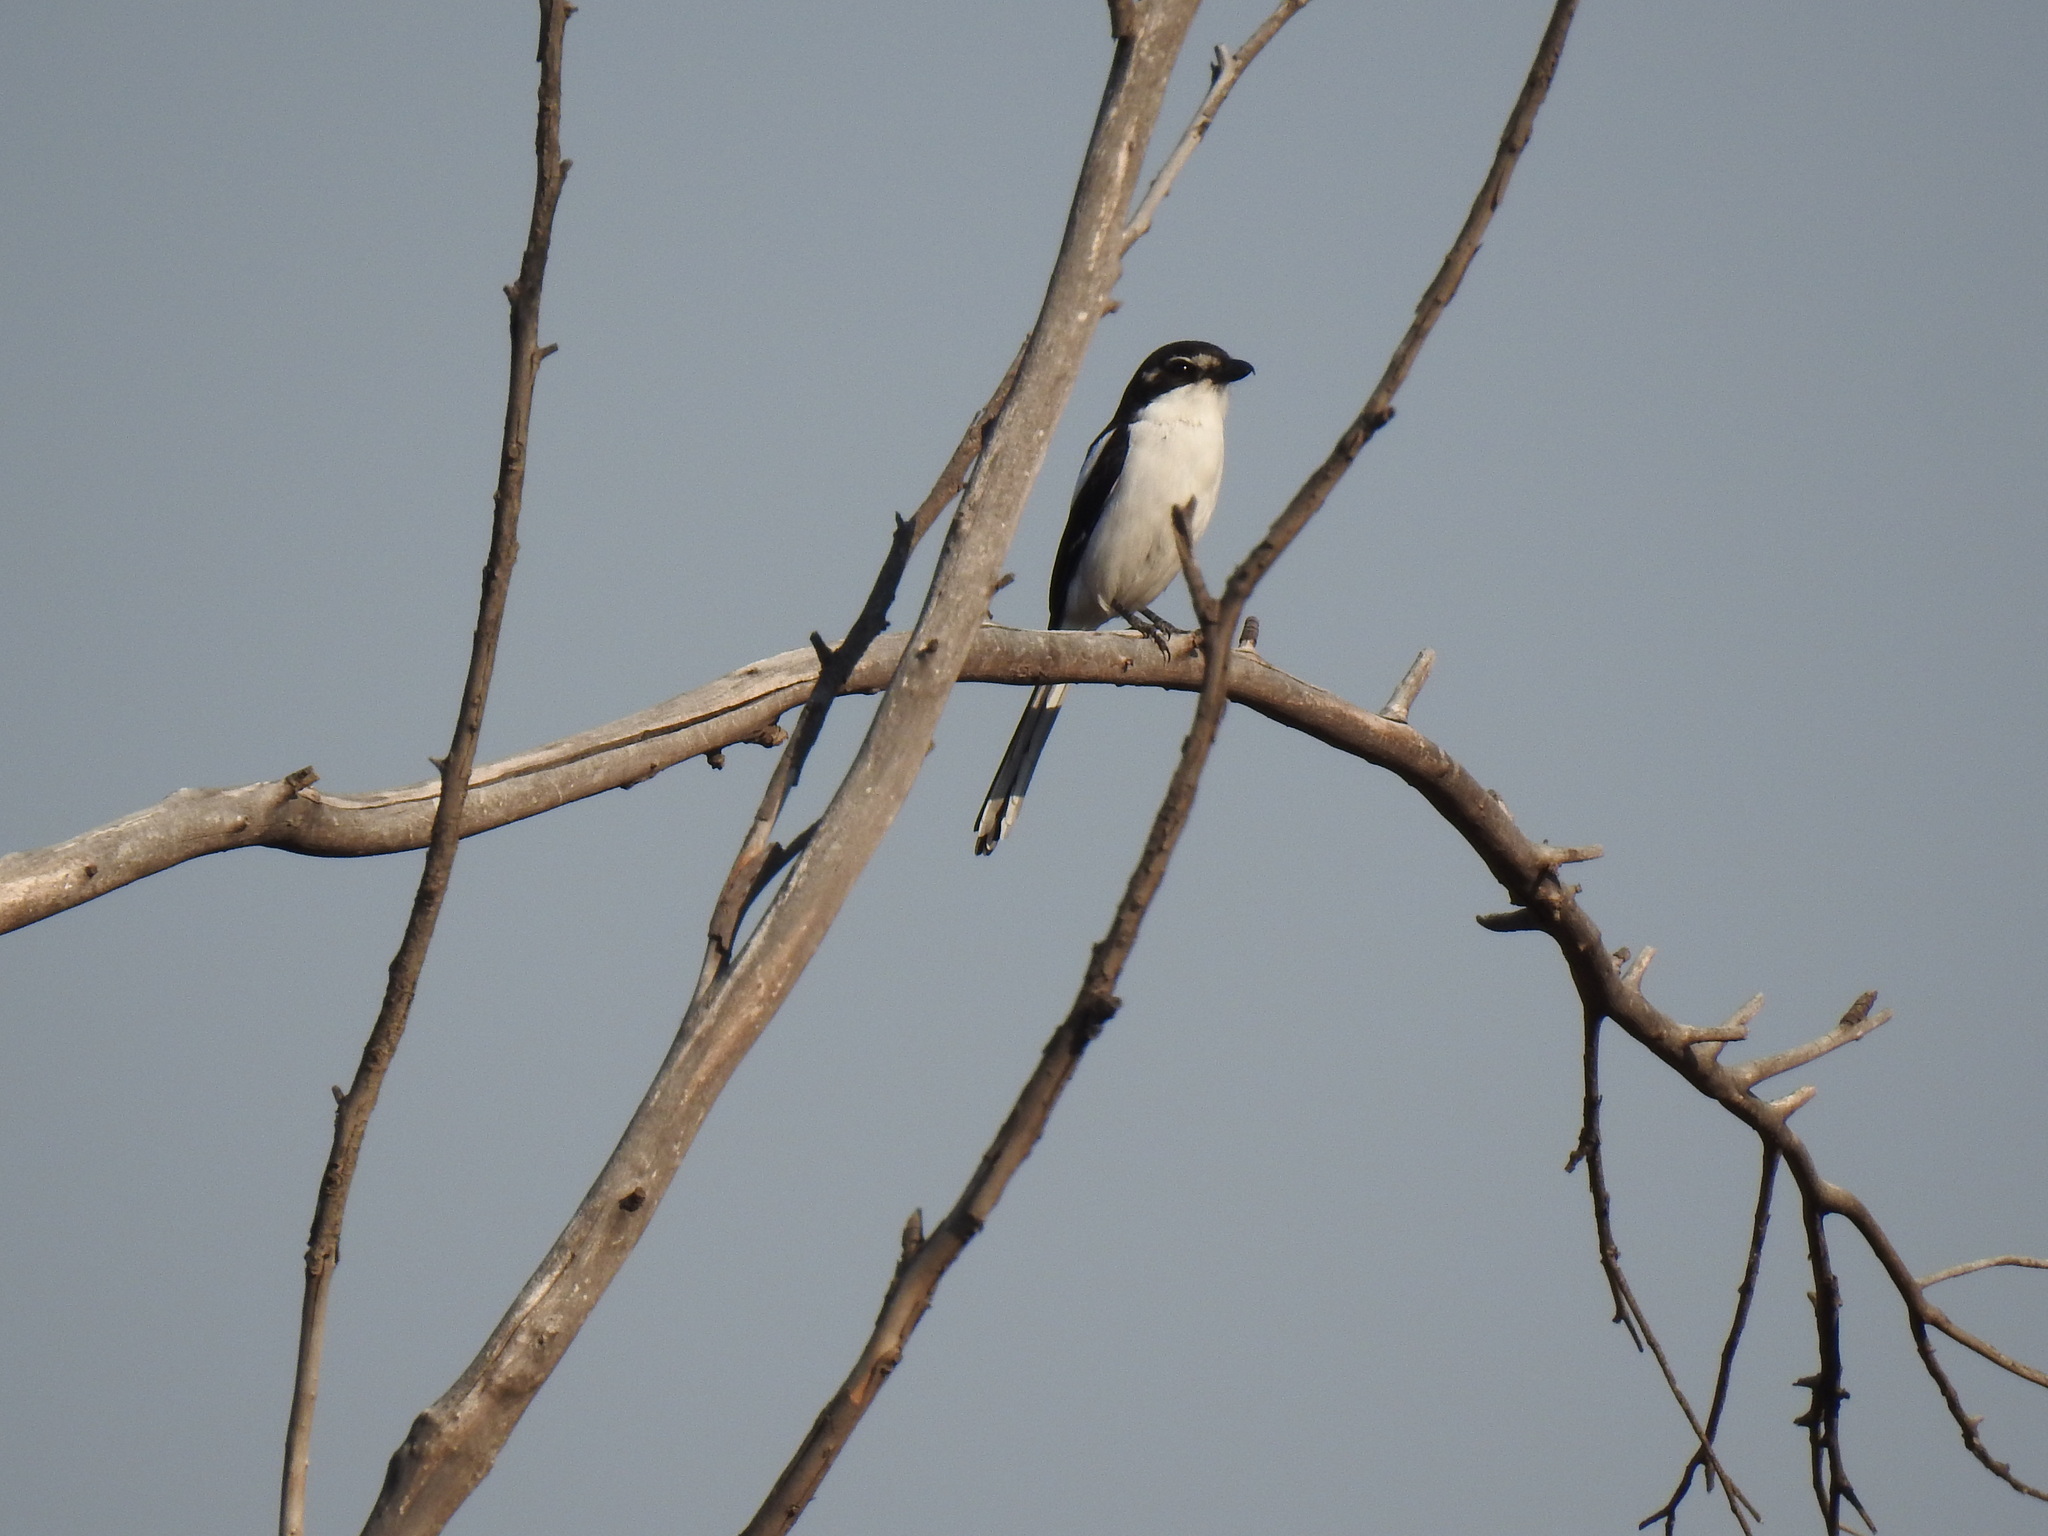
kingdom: Animalia
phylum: Chordata
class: Aves
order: Passeriformes
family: Laniidae
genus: Lanius
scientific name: Lanius collaris
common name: Southern fiscal
